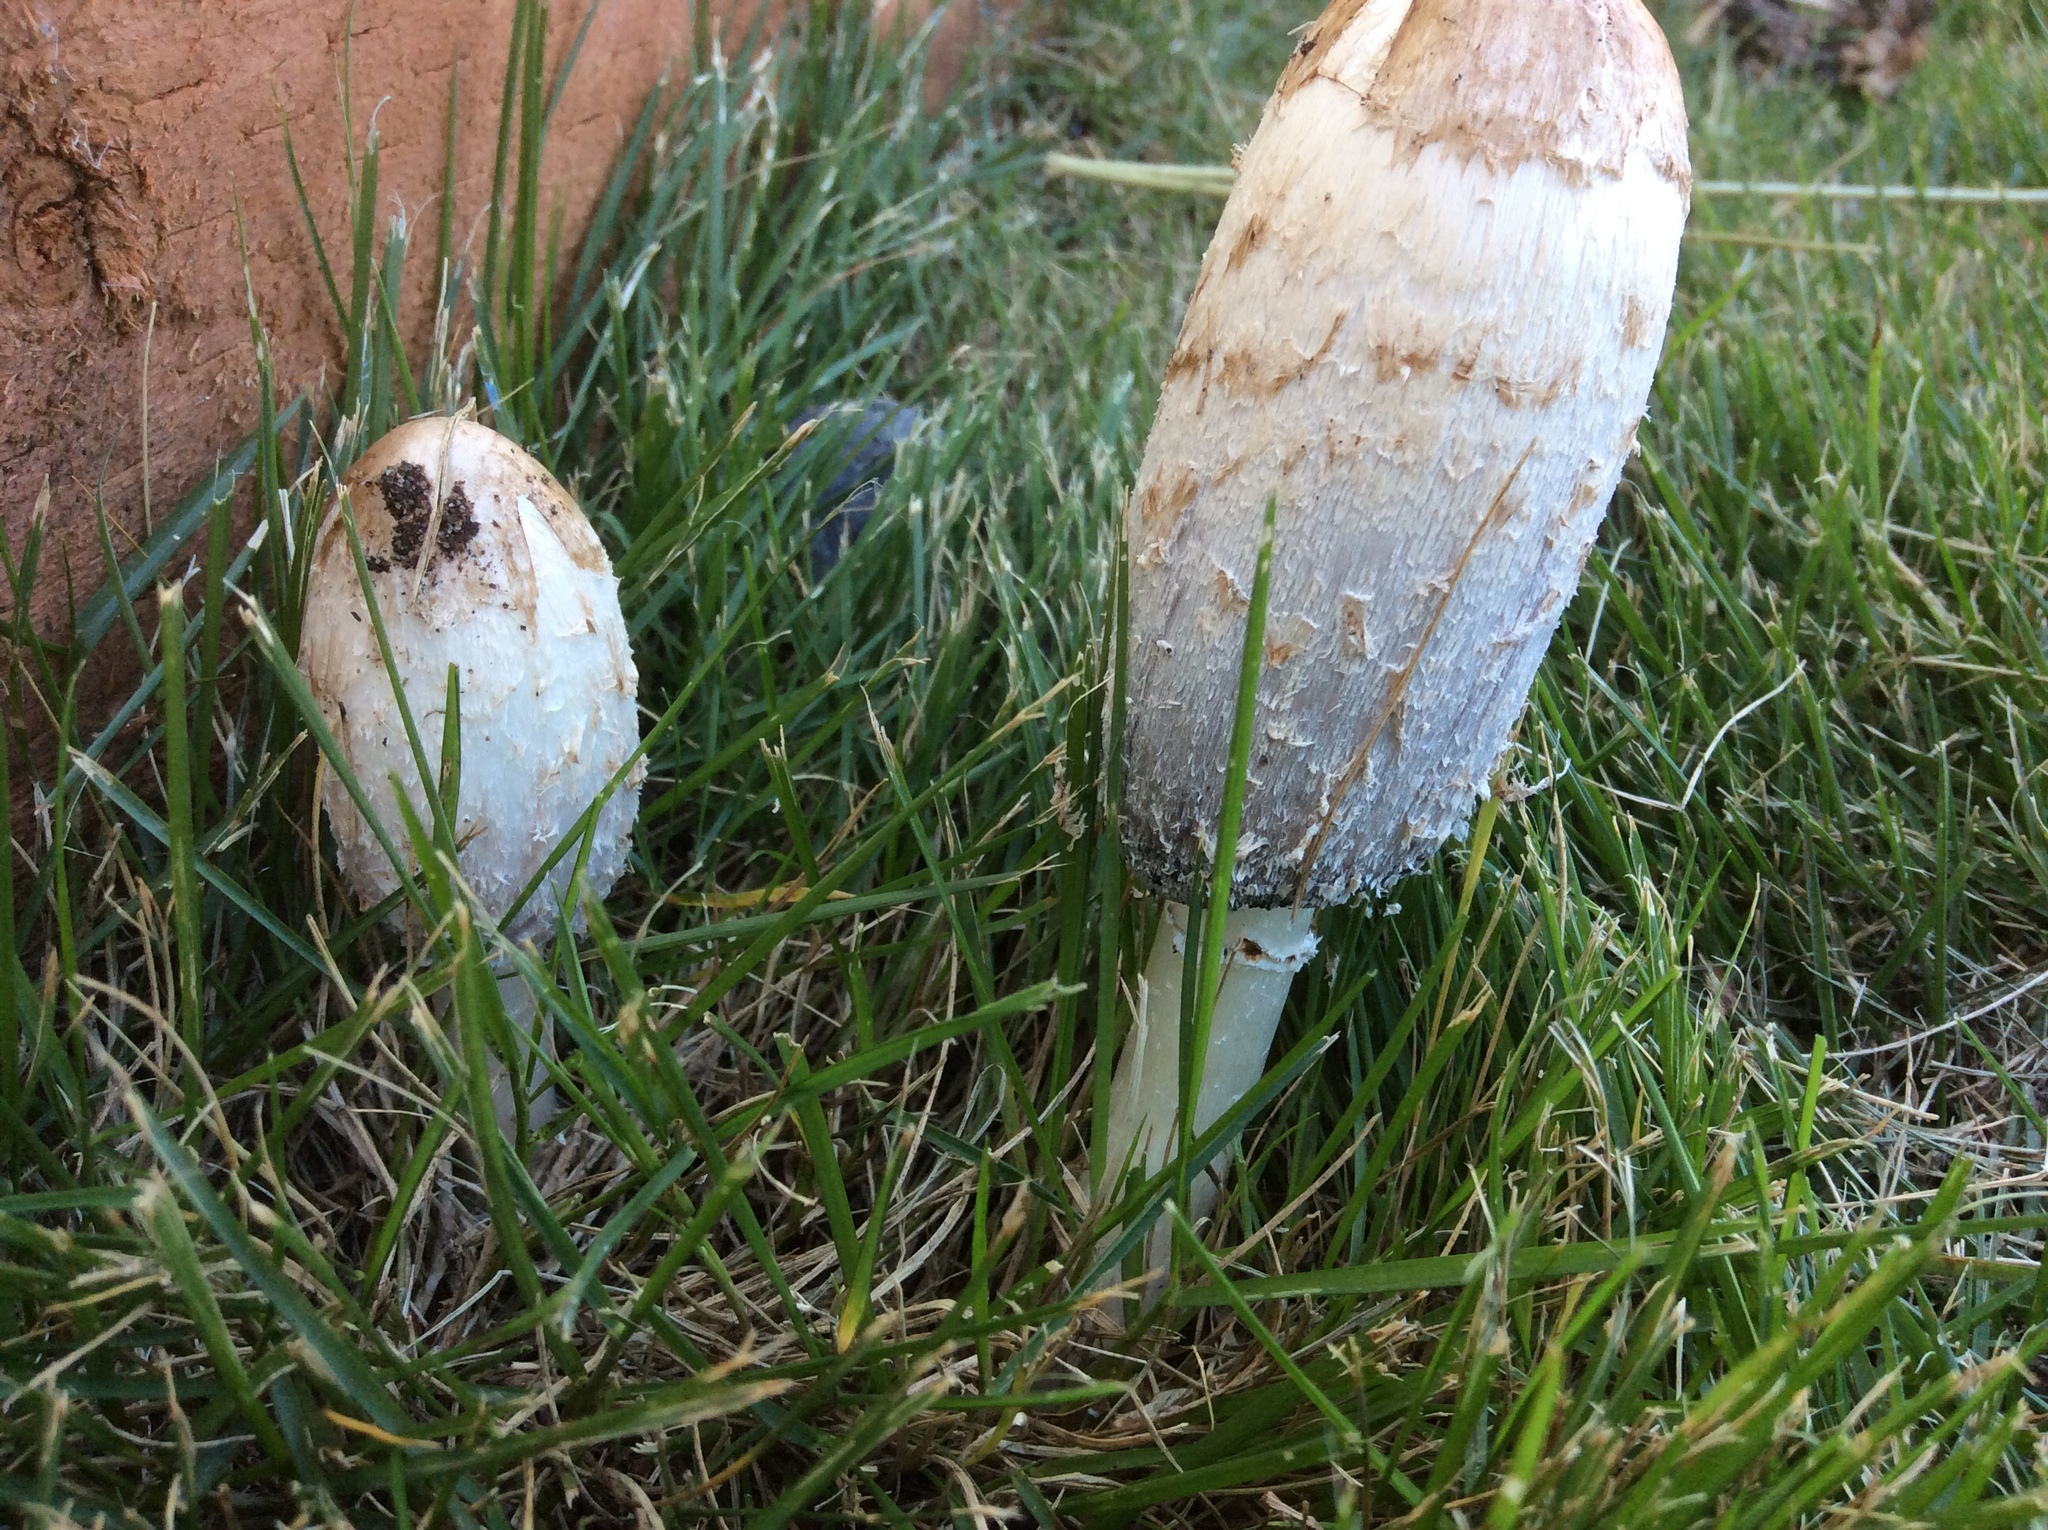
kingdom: Fungi
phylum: Basidiomycota
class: Agaricomycetes
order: Agaricales
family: Agaricaceae
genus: Coprinus
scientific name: Coprinus comatus
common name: Lawyer's wig
